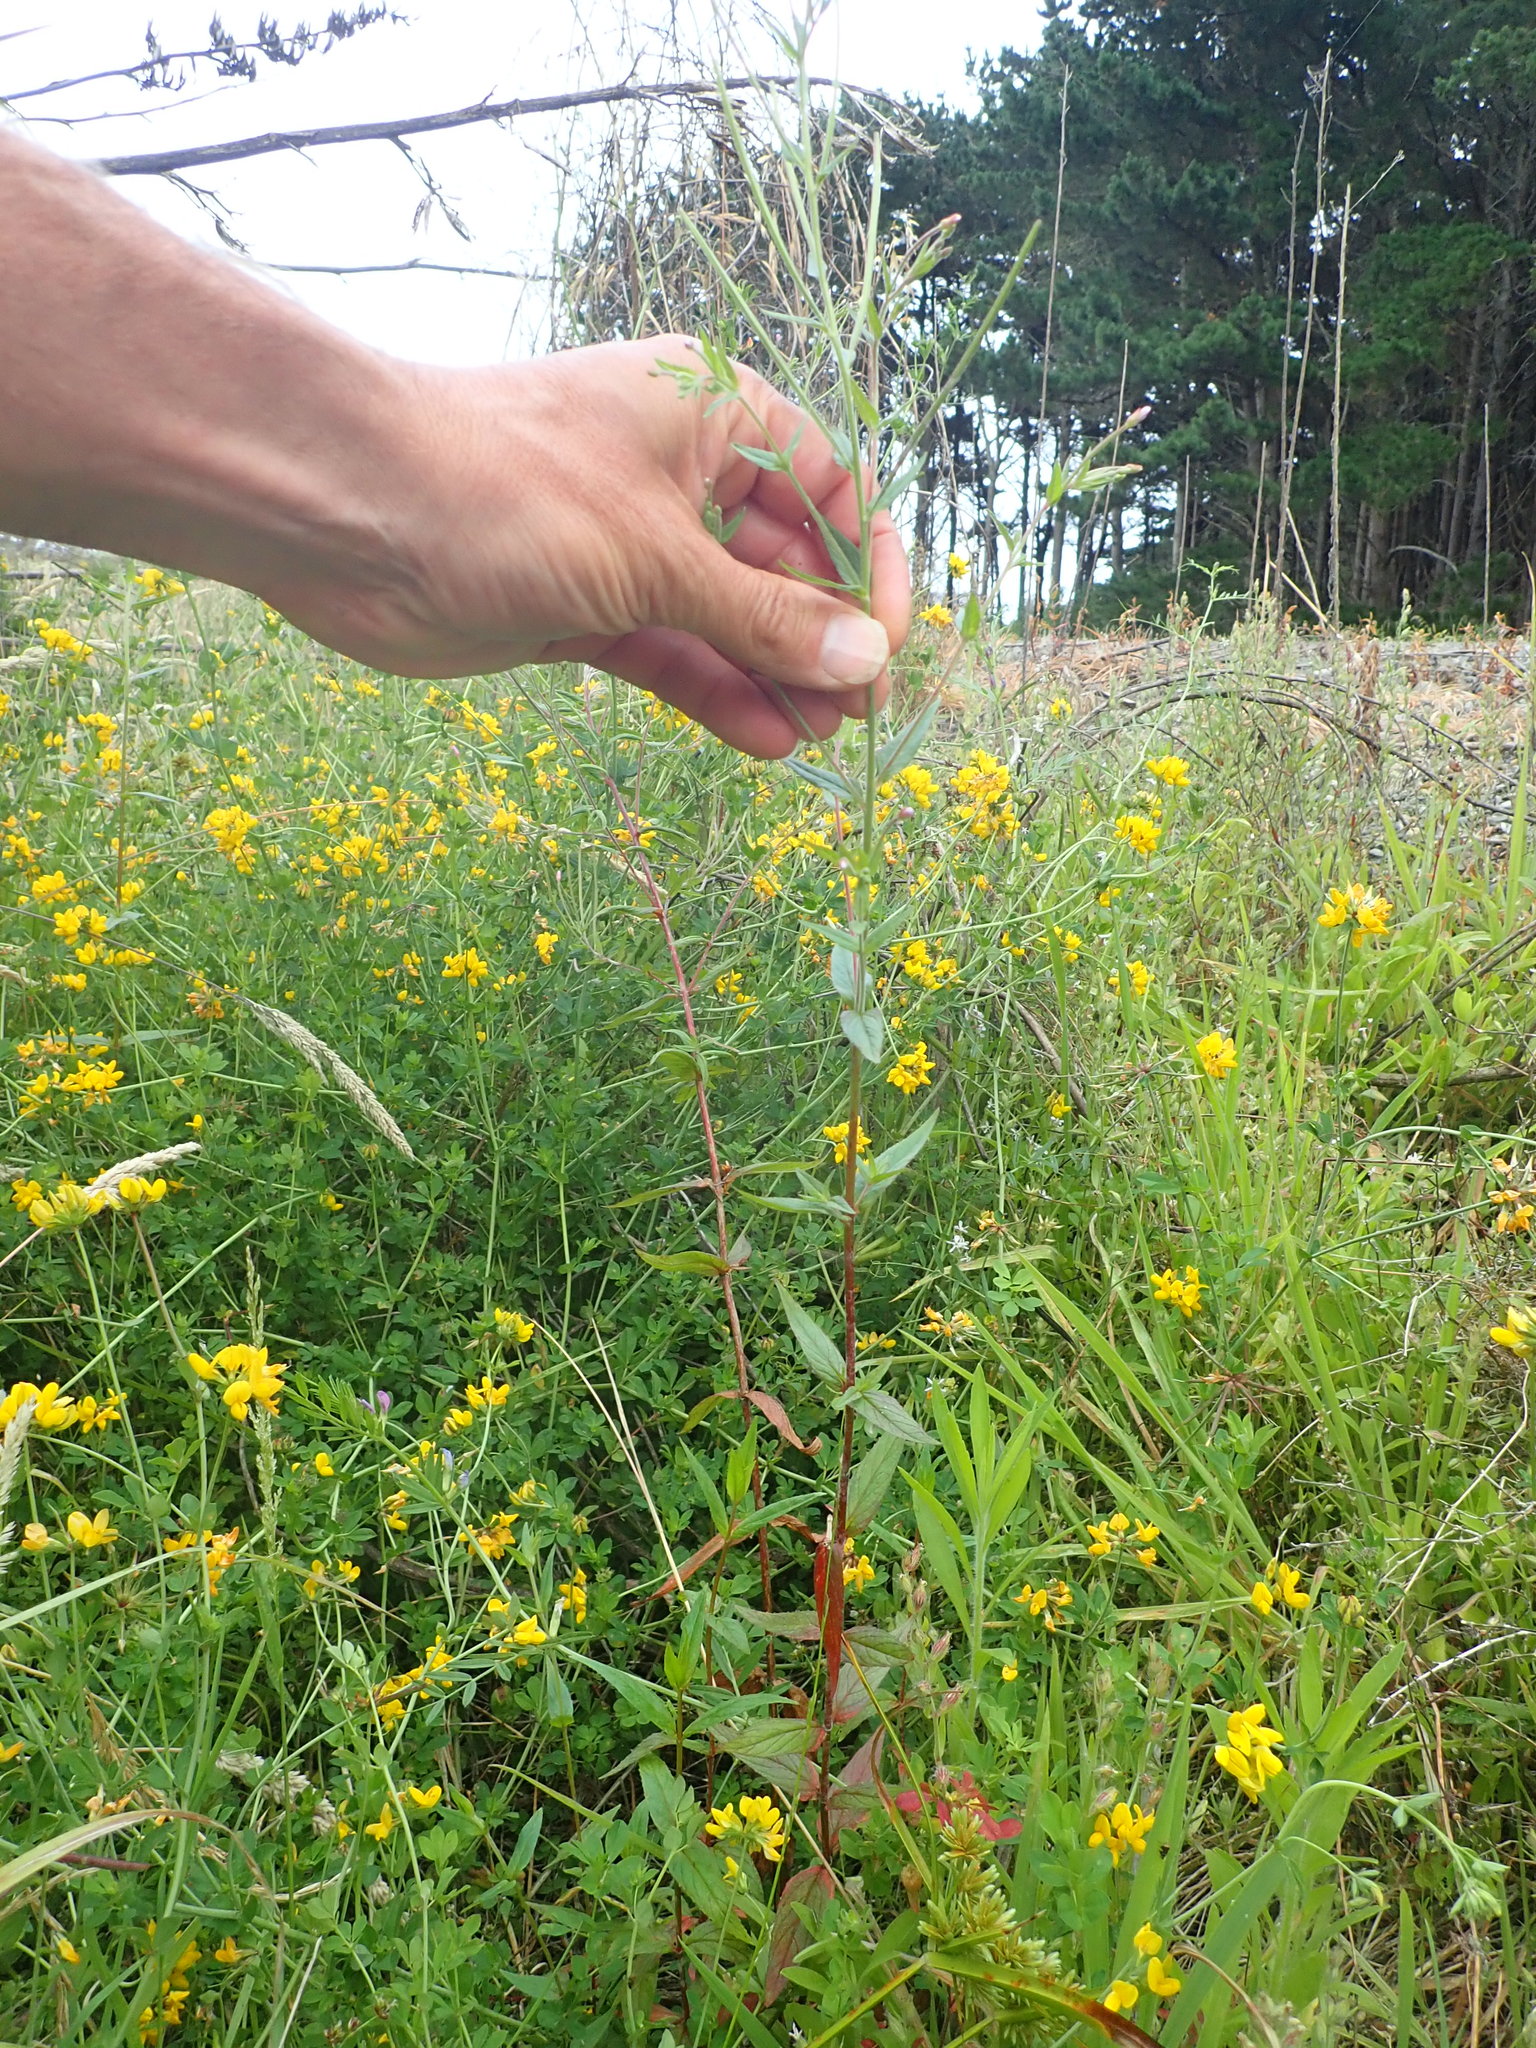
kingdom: Plantae
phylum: Tracheophyta
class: Magnoliopsida
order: Myrtales
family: Onagraceae
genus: Epilobium
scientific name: Epilobium ciliatum
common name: American willowherb
